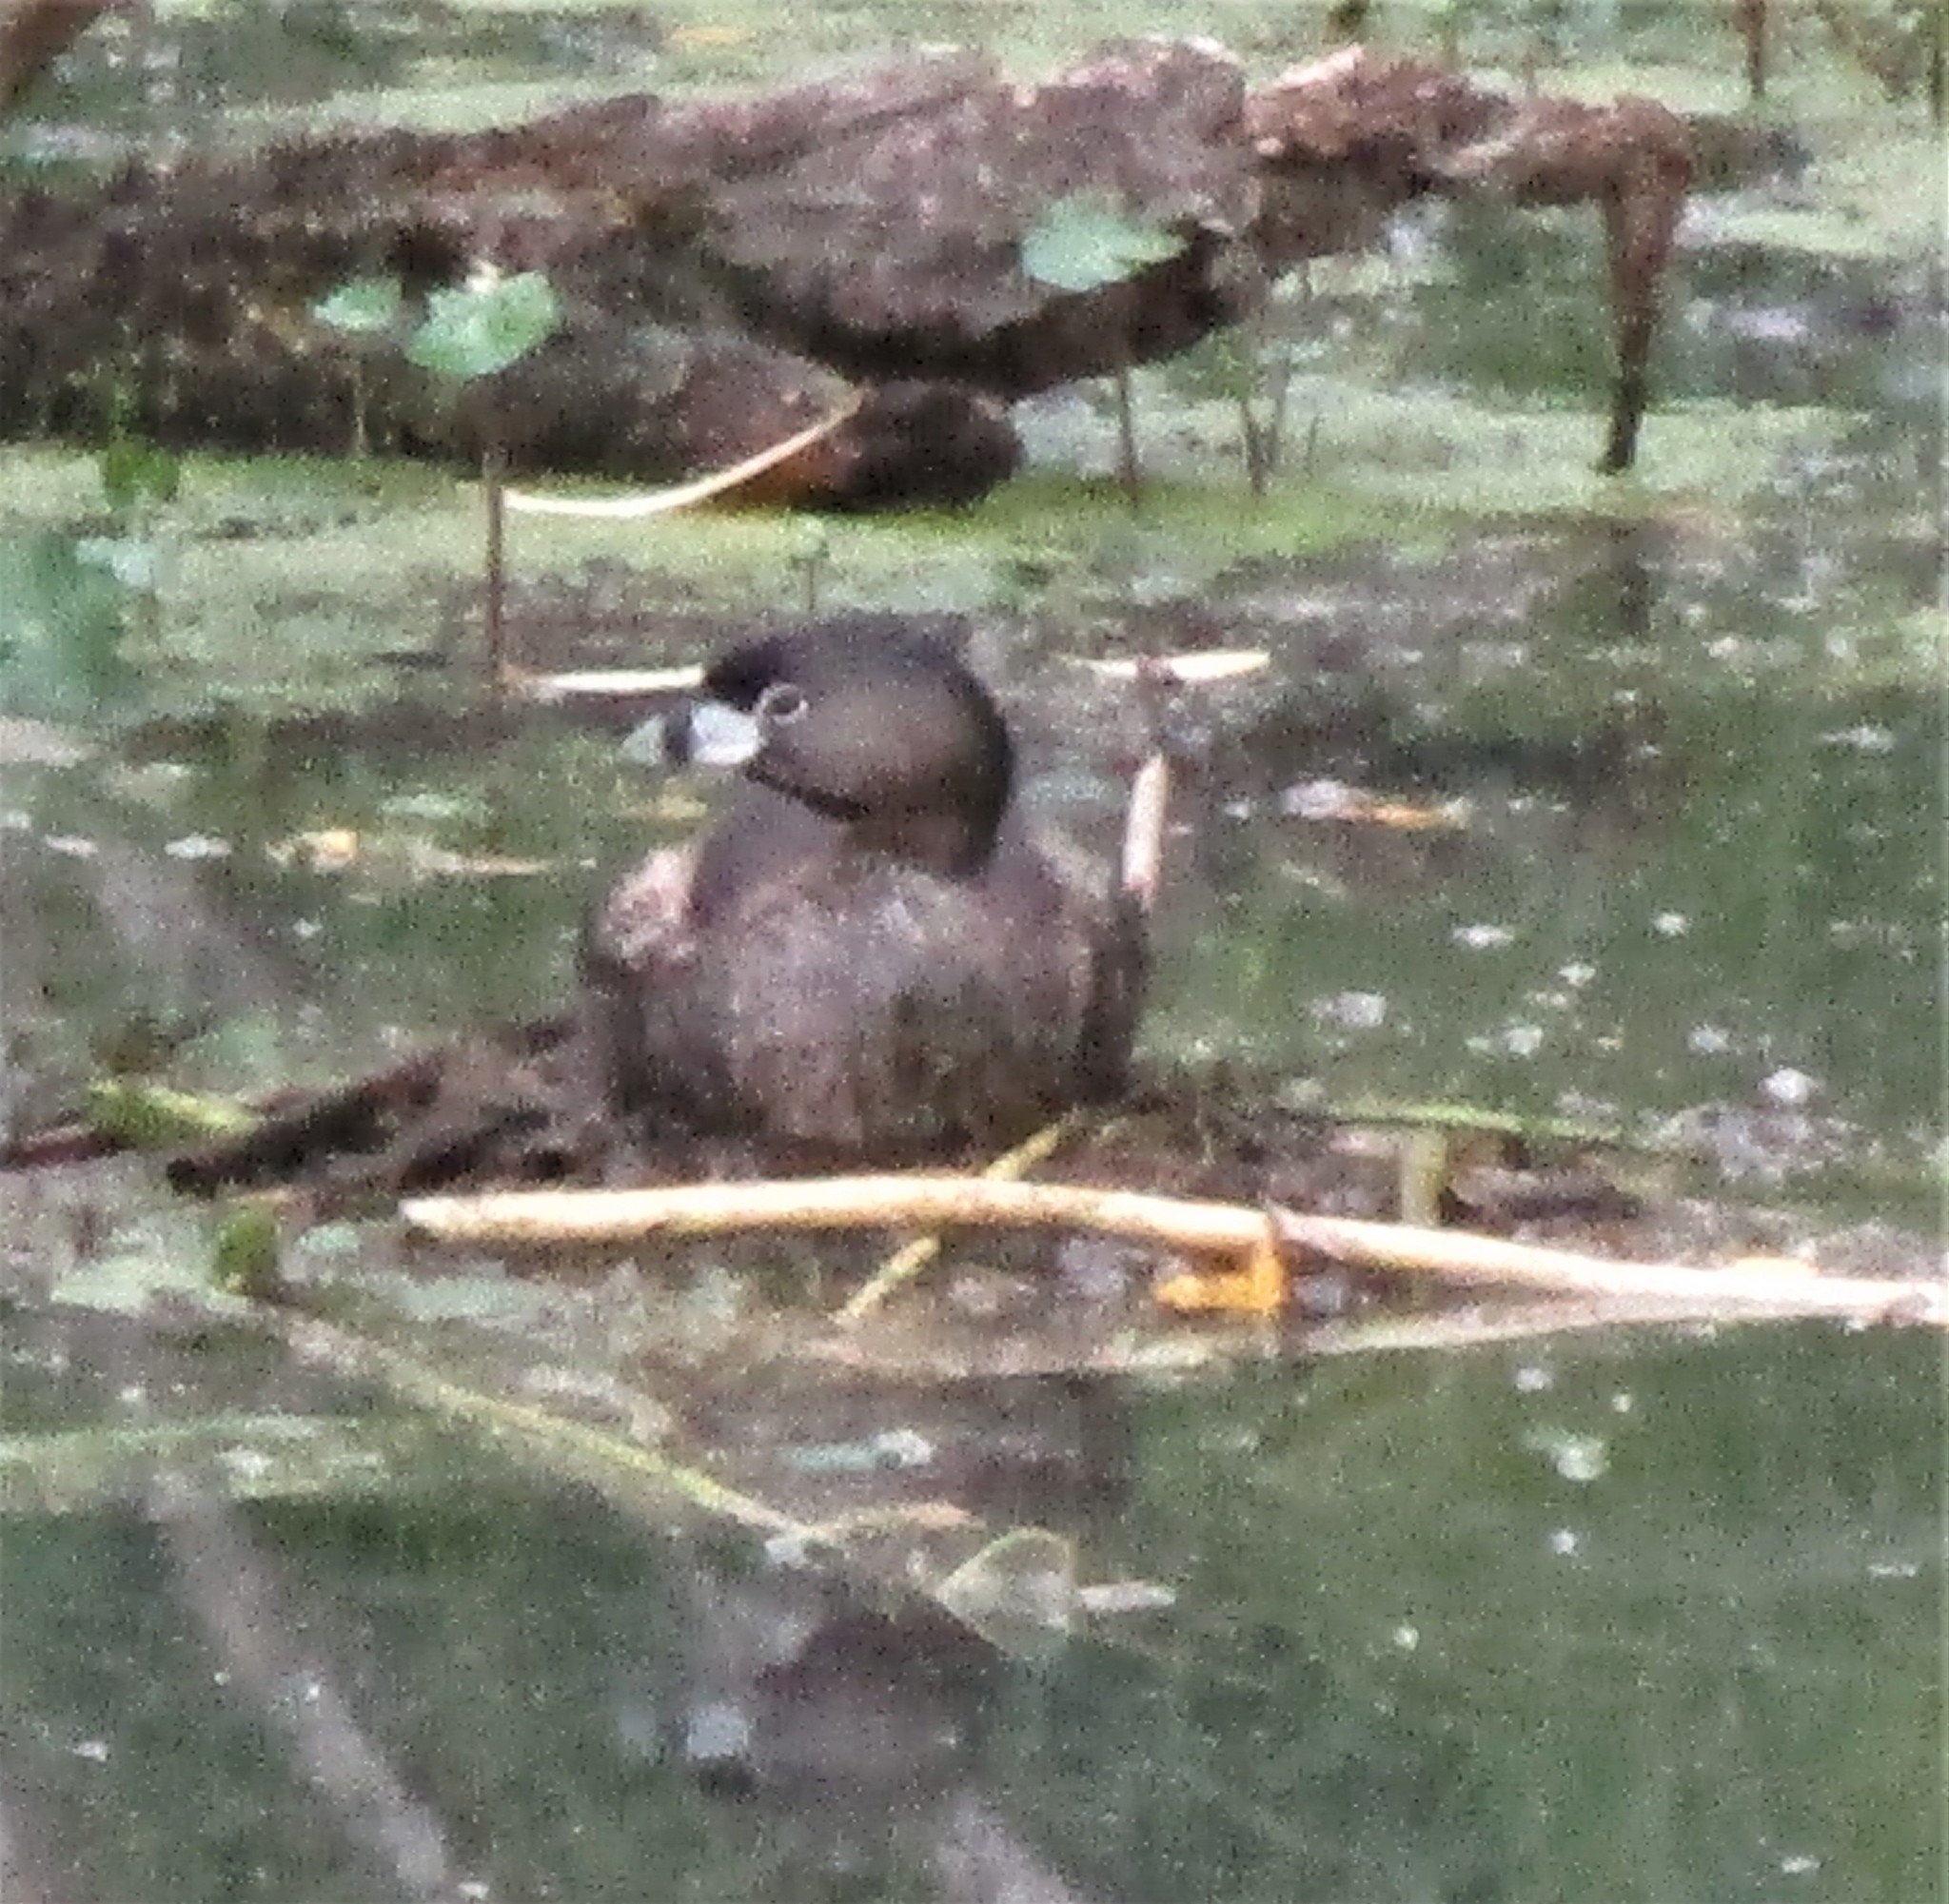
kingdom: Animalia
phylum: Chordata
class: Aves
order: Podicipediformes
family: Podicipedidae
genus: Podilymbus
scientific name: Podilymbus podiceps
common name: Pied-billed grebe
